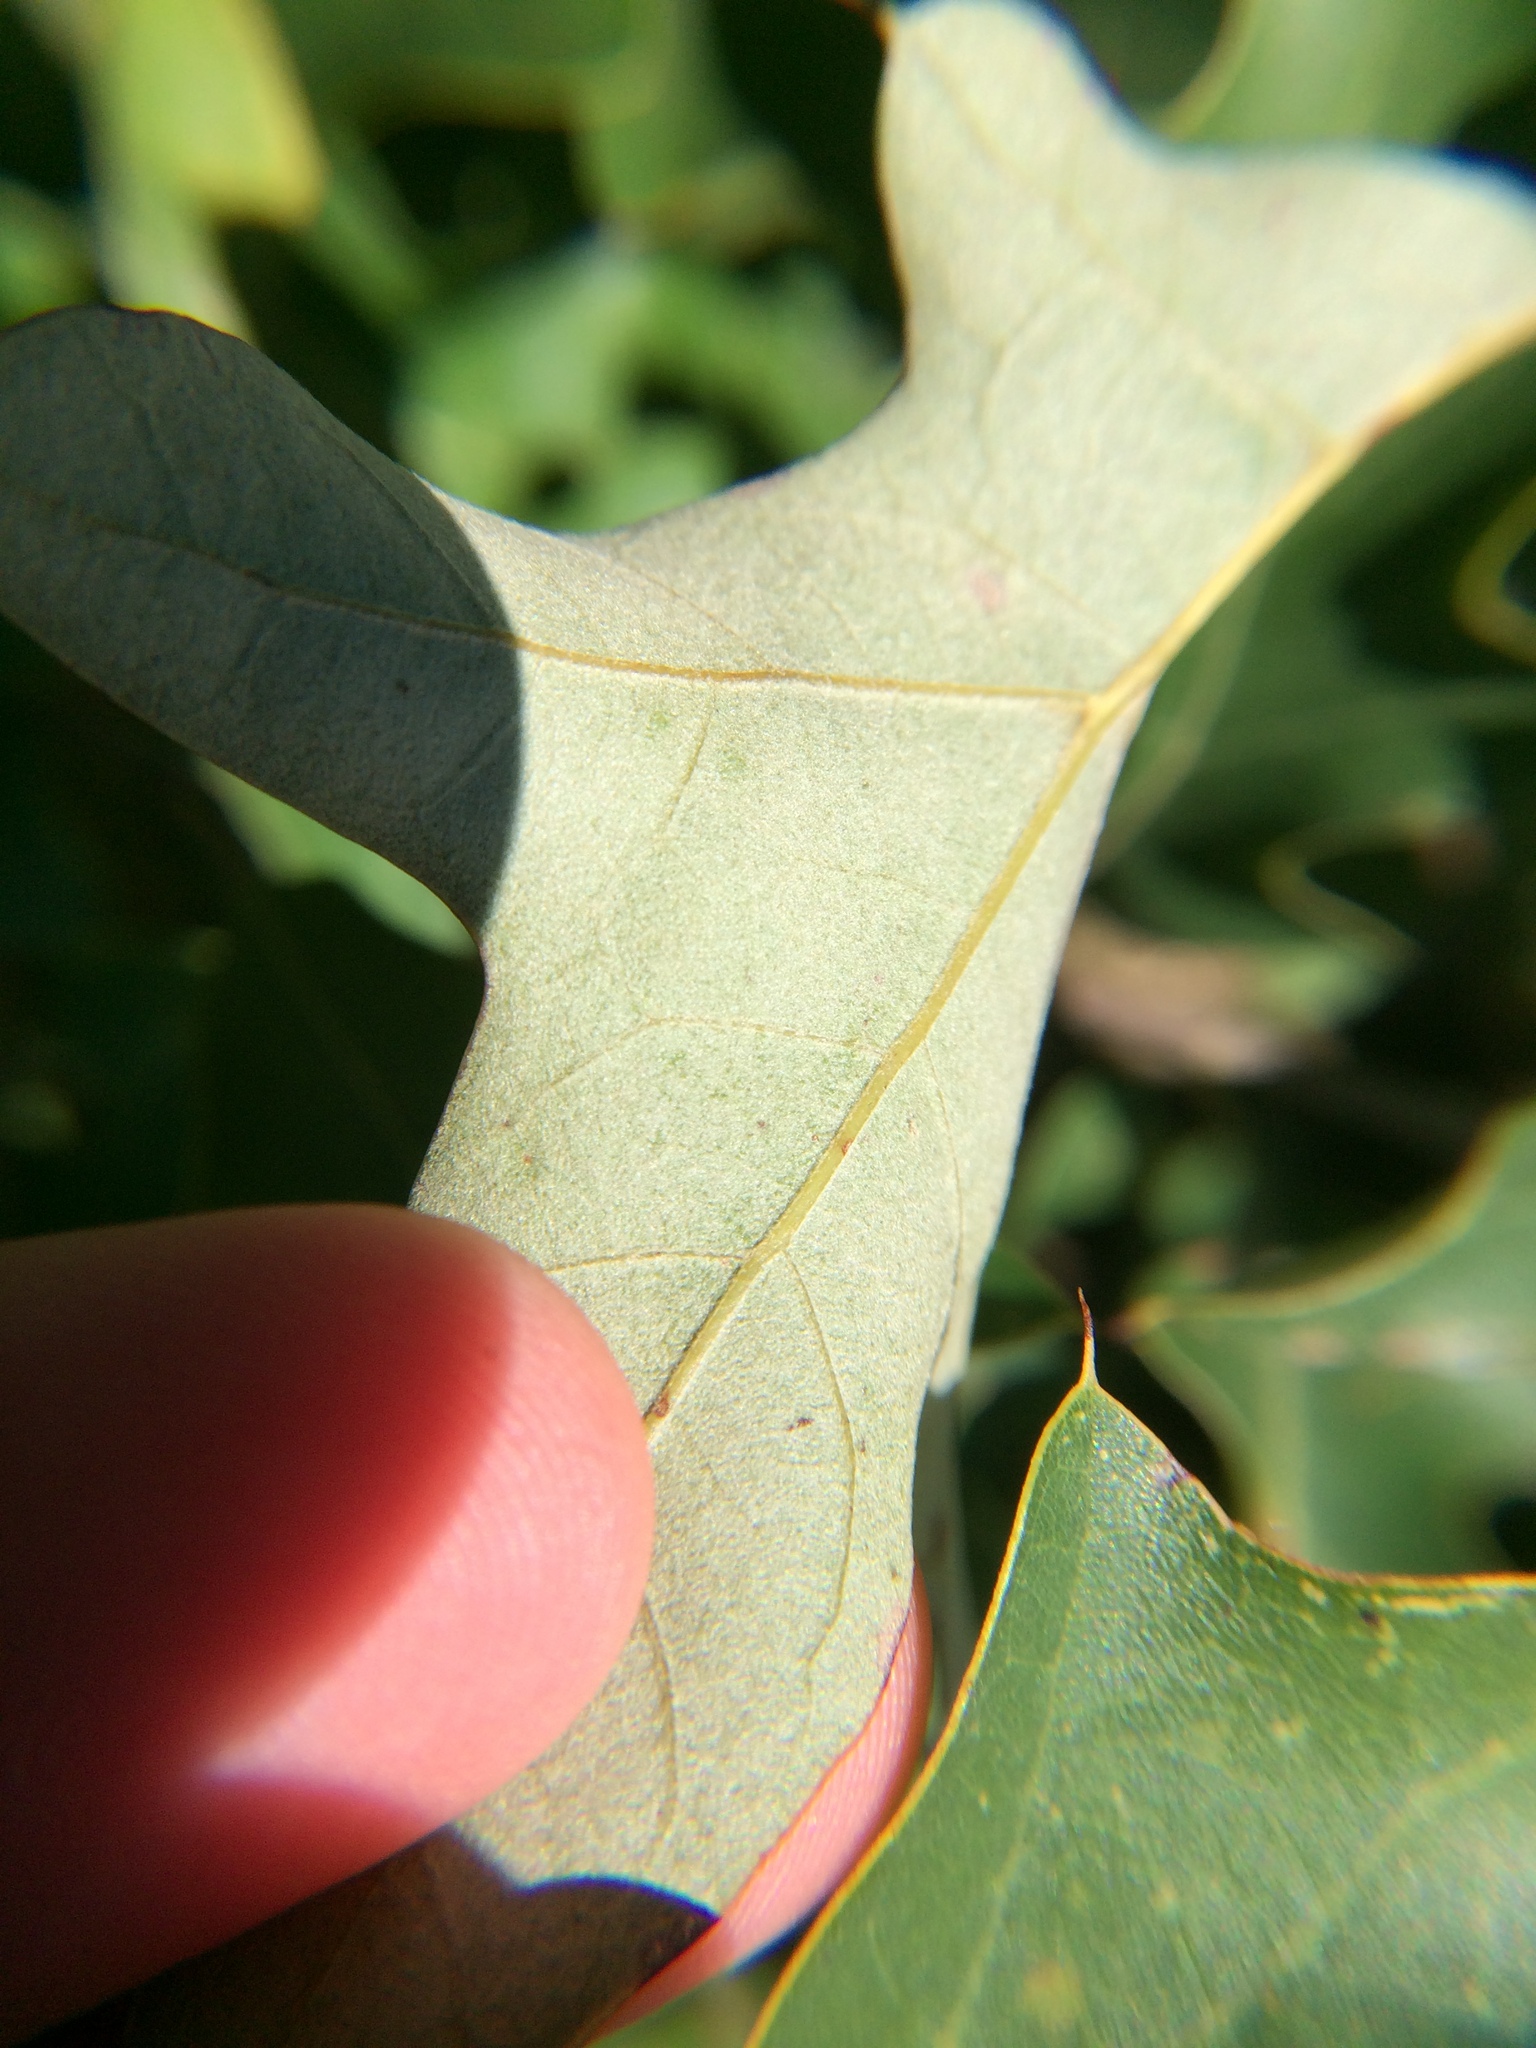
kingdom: Animalia
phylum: Arthropoda
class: Insecta
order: Hymenoptera
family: Cynipidae
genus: Callirhytis
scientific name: Callirhytis
